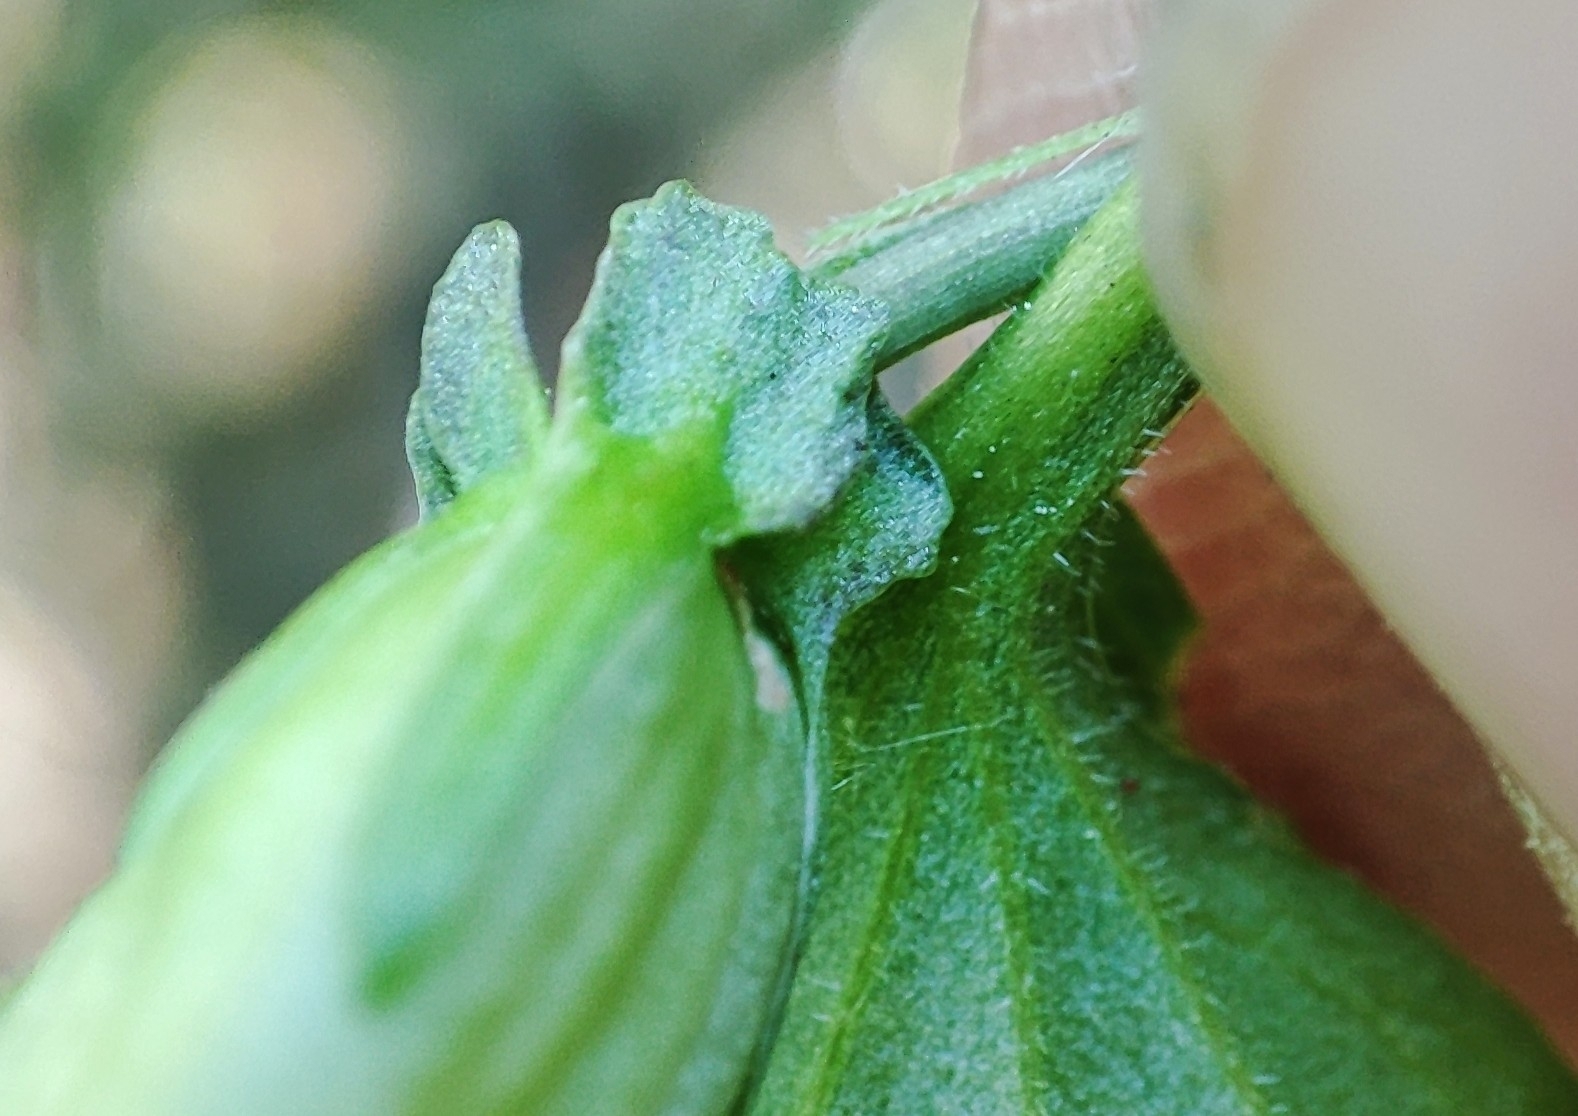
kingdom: Plantae
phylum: Tracheophyta
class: Magnoliopsida
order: Malpighiales
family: Violaceae
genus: Viola
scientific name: Viola
